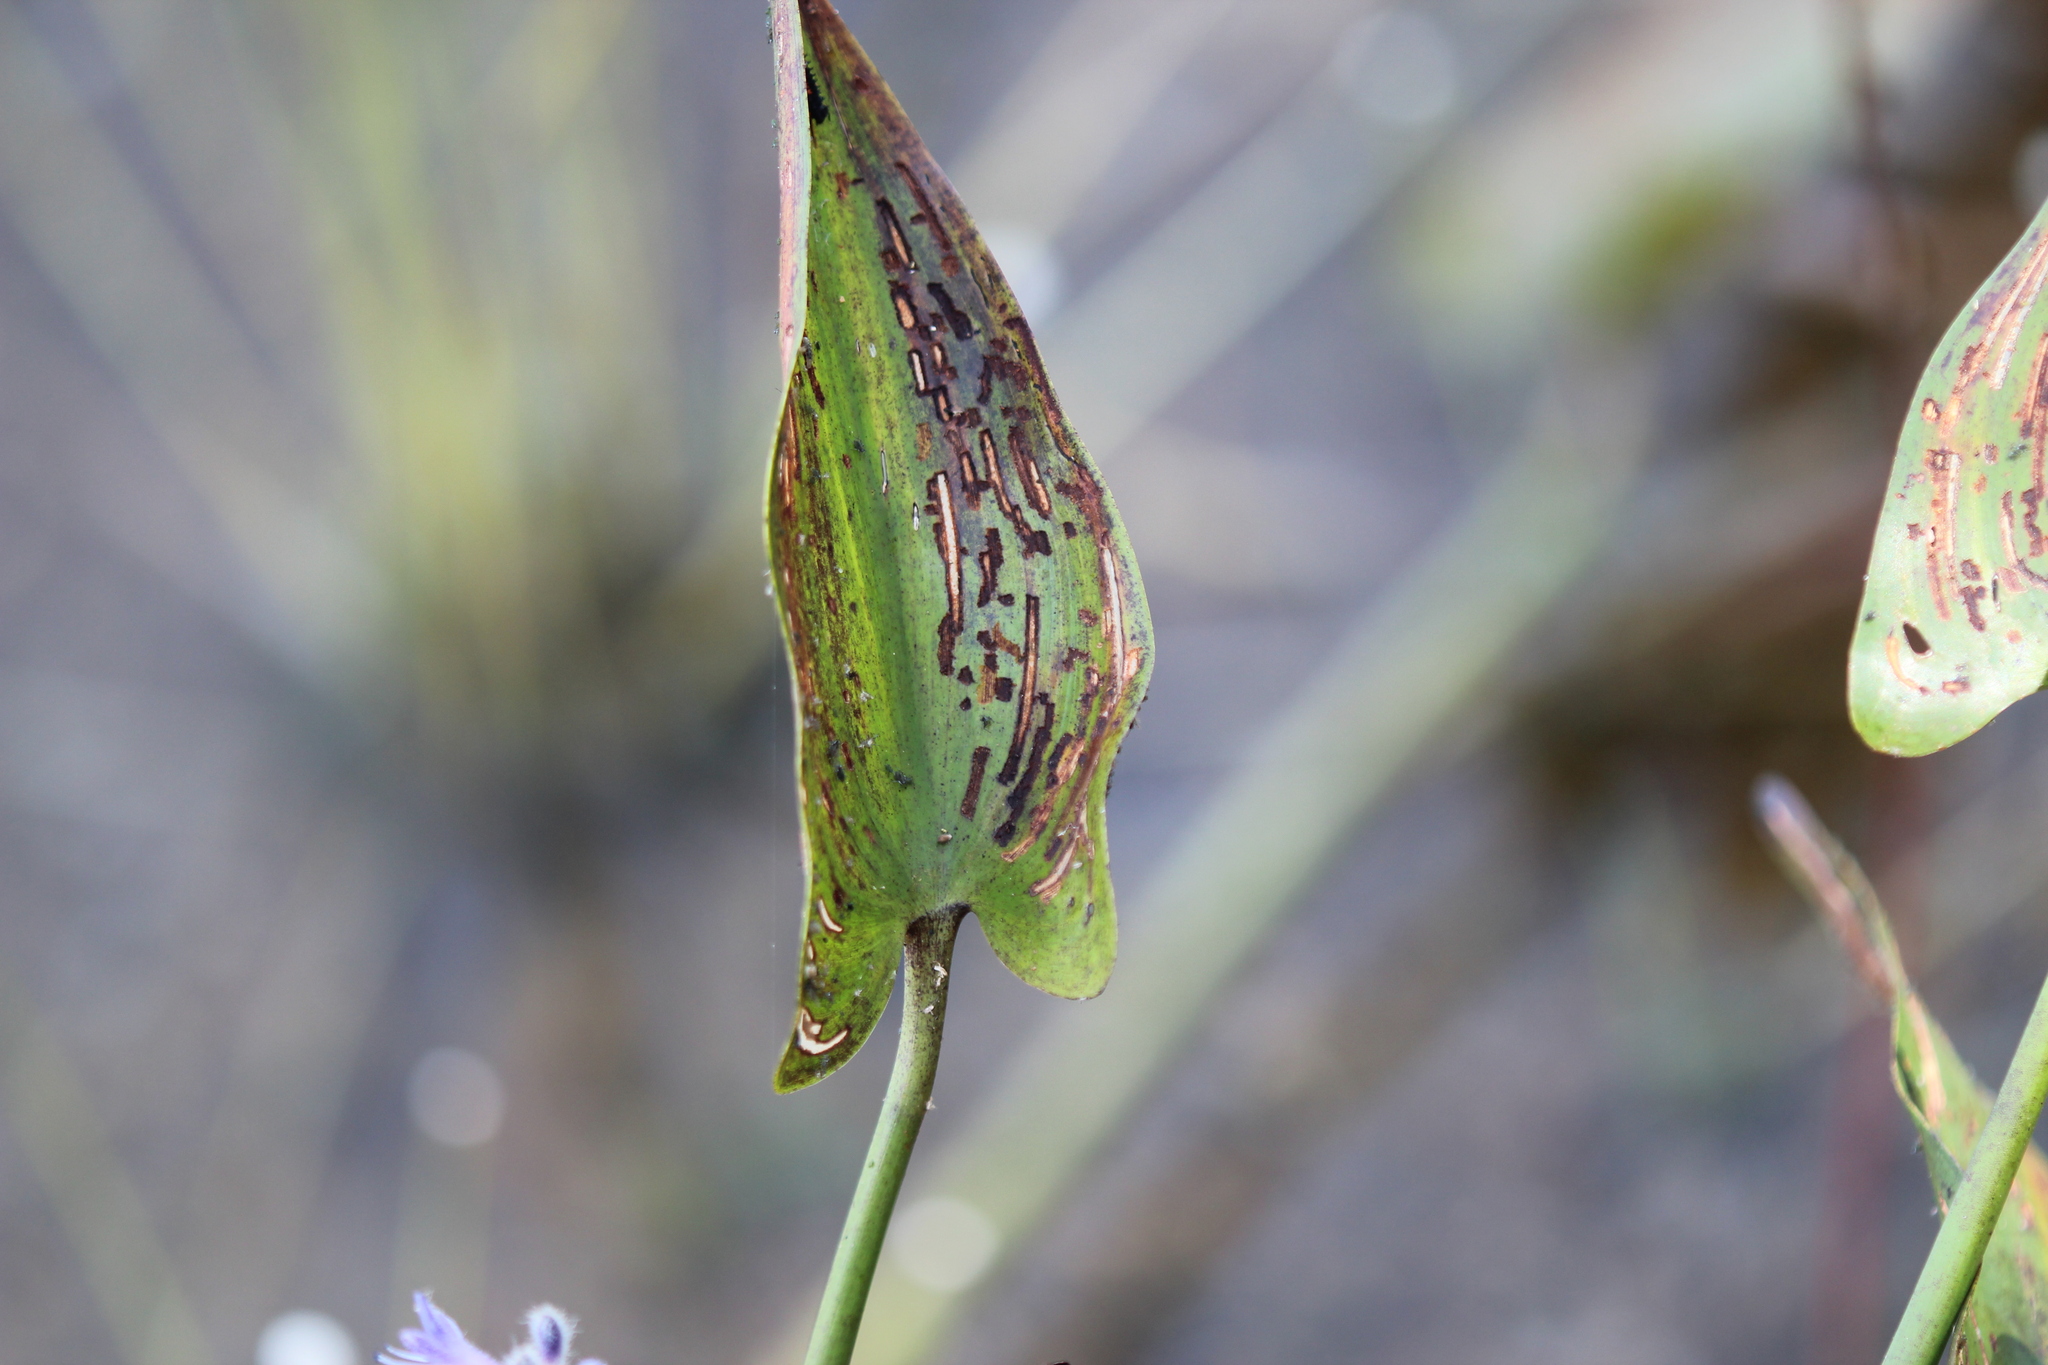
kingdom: Plantae
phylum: Tracheophyta
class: Liliopsida
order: Commelinales
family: Pontederiaceae
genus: Pontederia
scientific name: Pontederia cordata
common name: Pickerelweed
